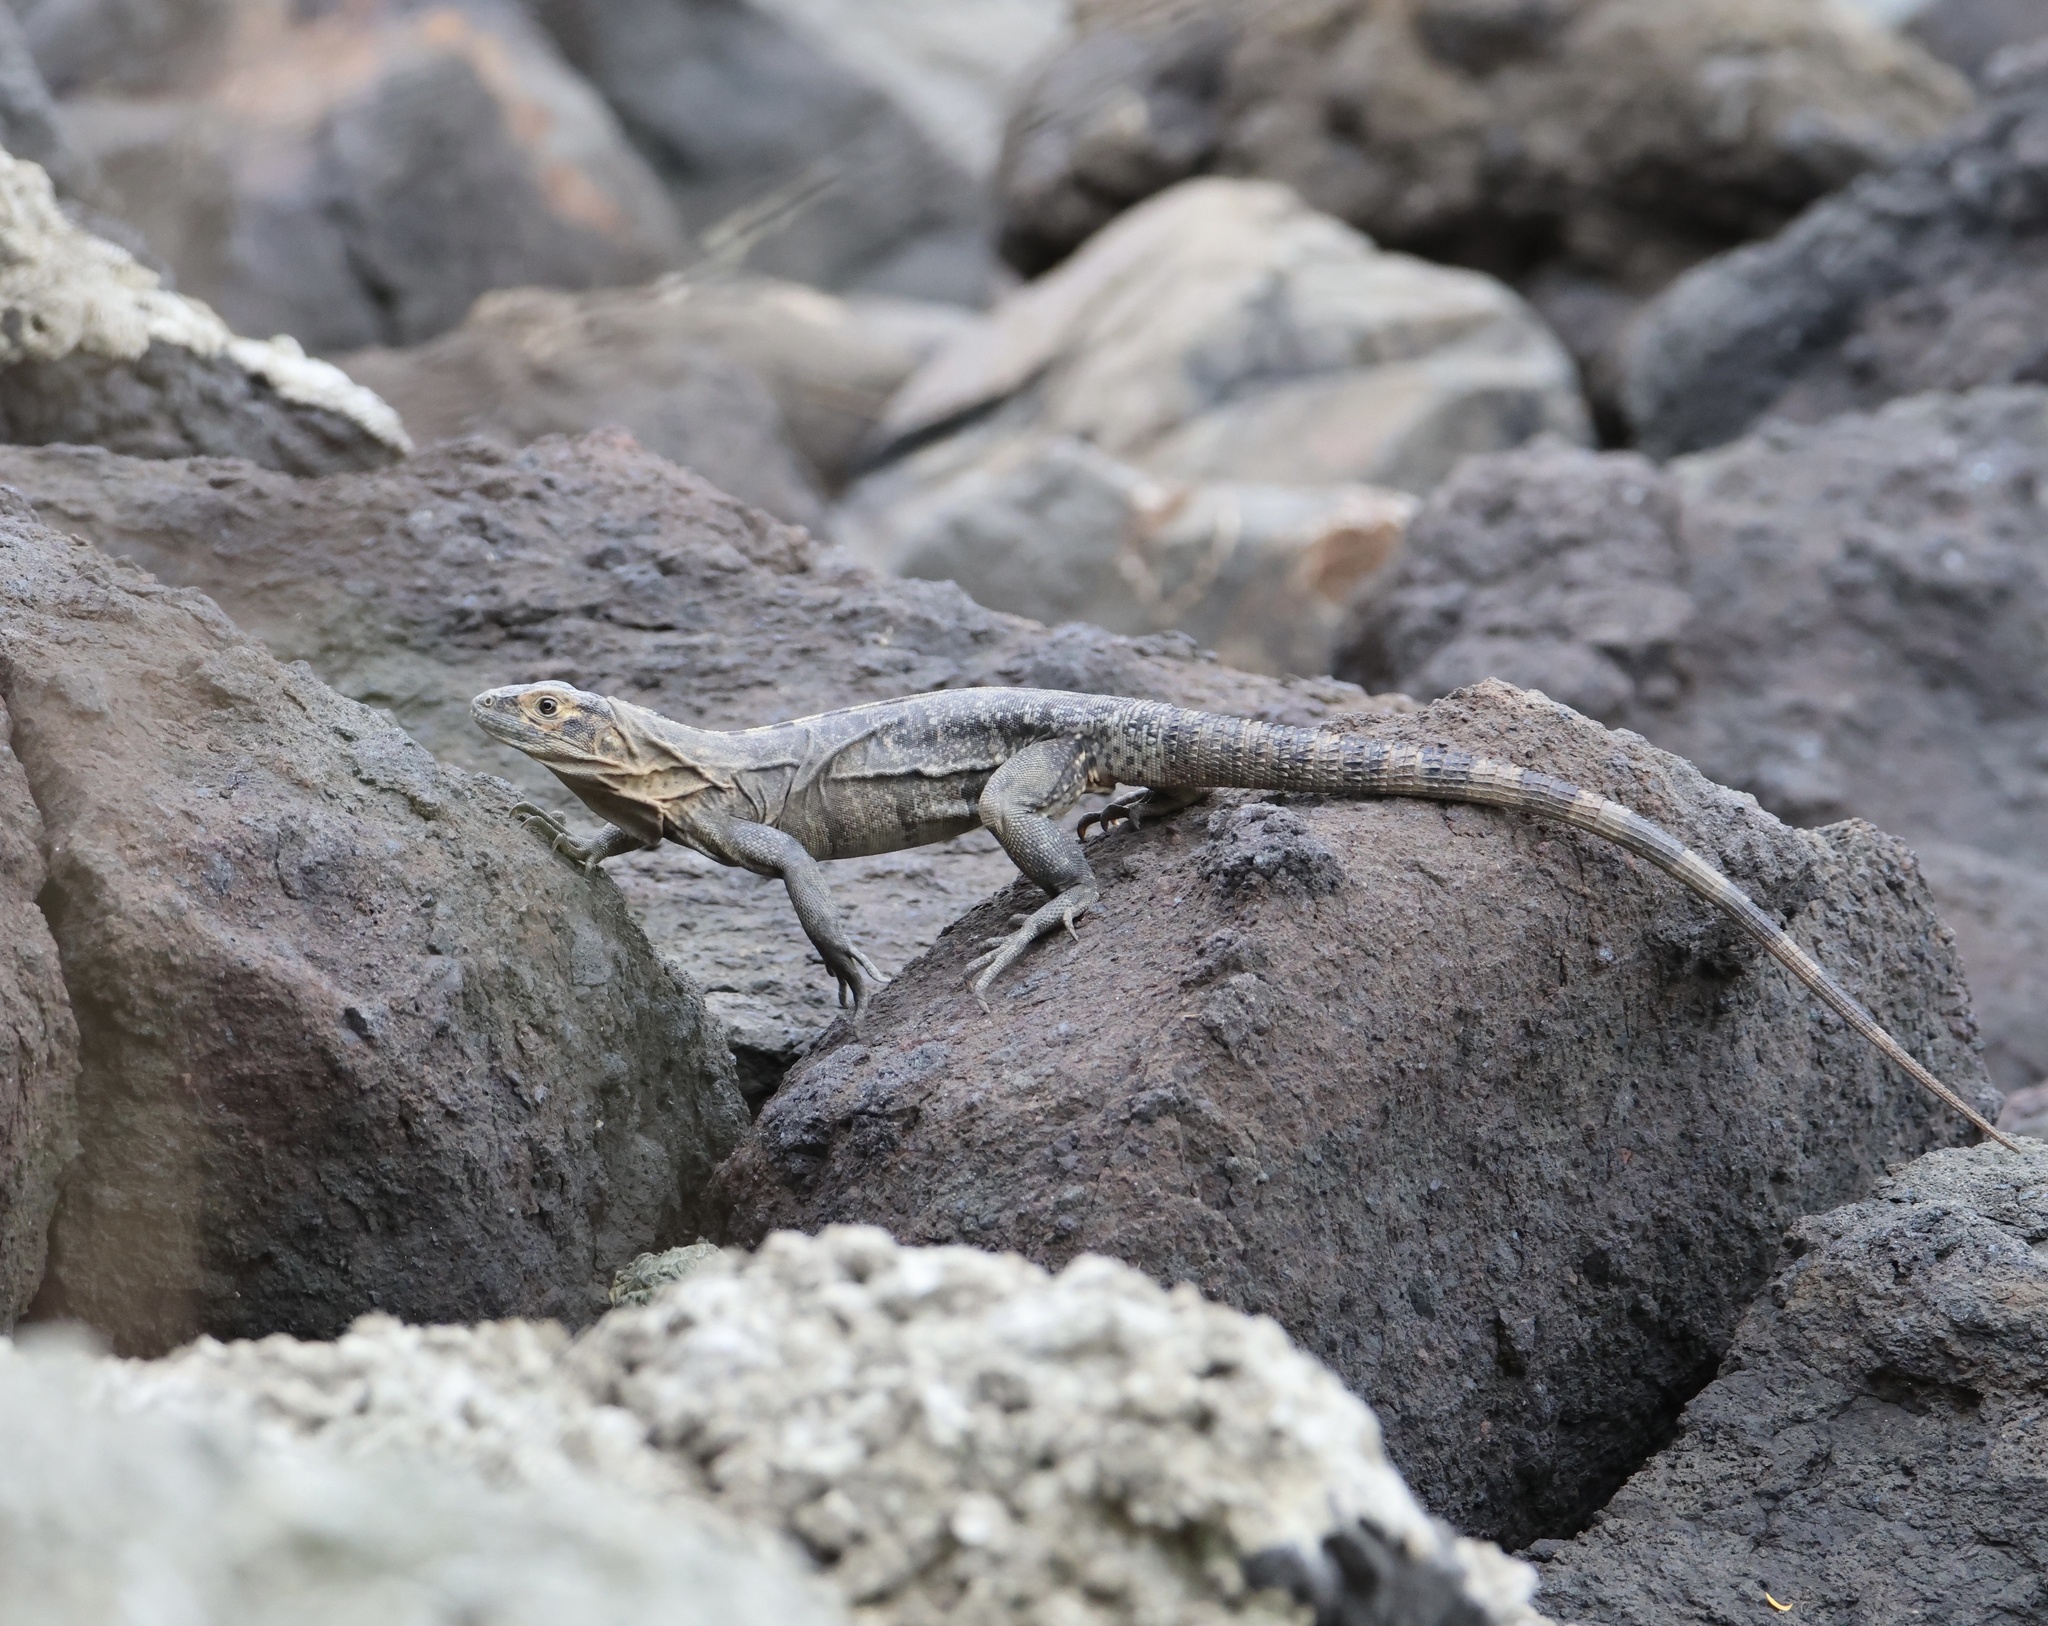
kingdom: Animalia
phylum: Chordata
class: Squamata
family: Iguanidae
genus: Ctenosaura
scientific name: Ctenosaura similis
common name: Black spiny-tailed iguana
